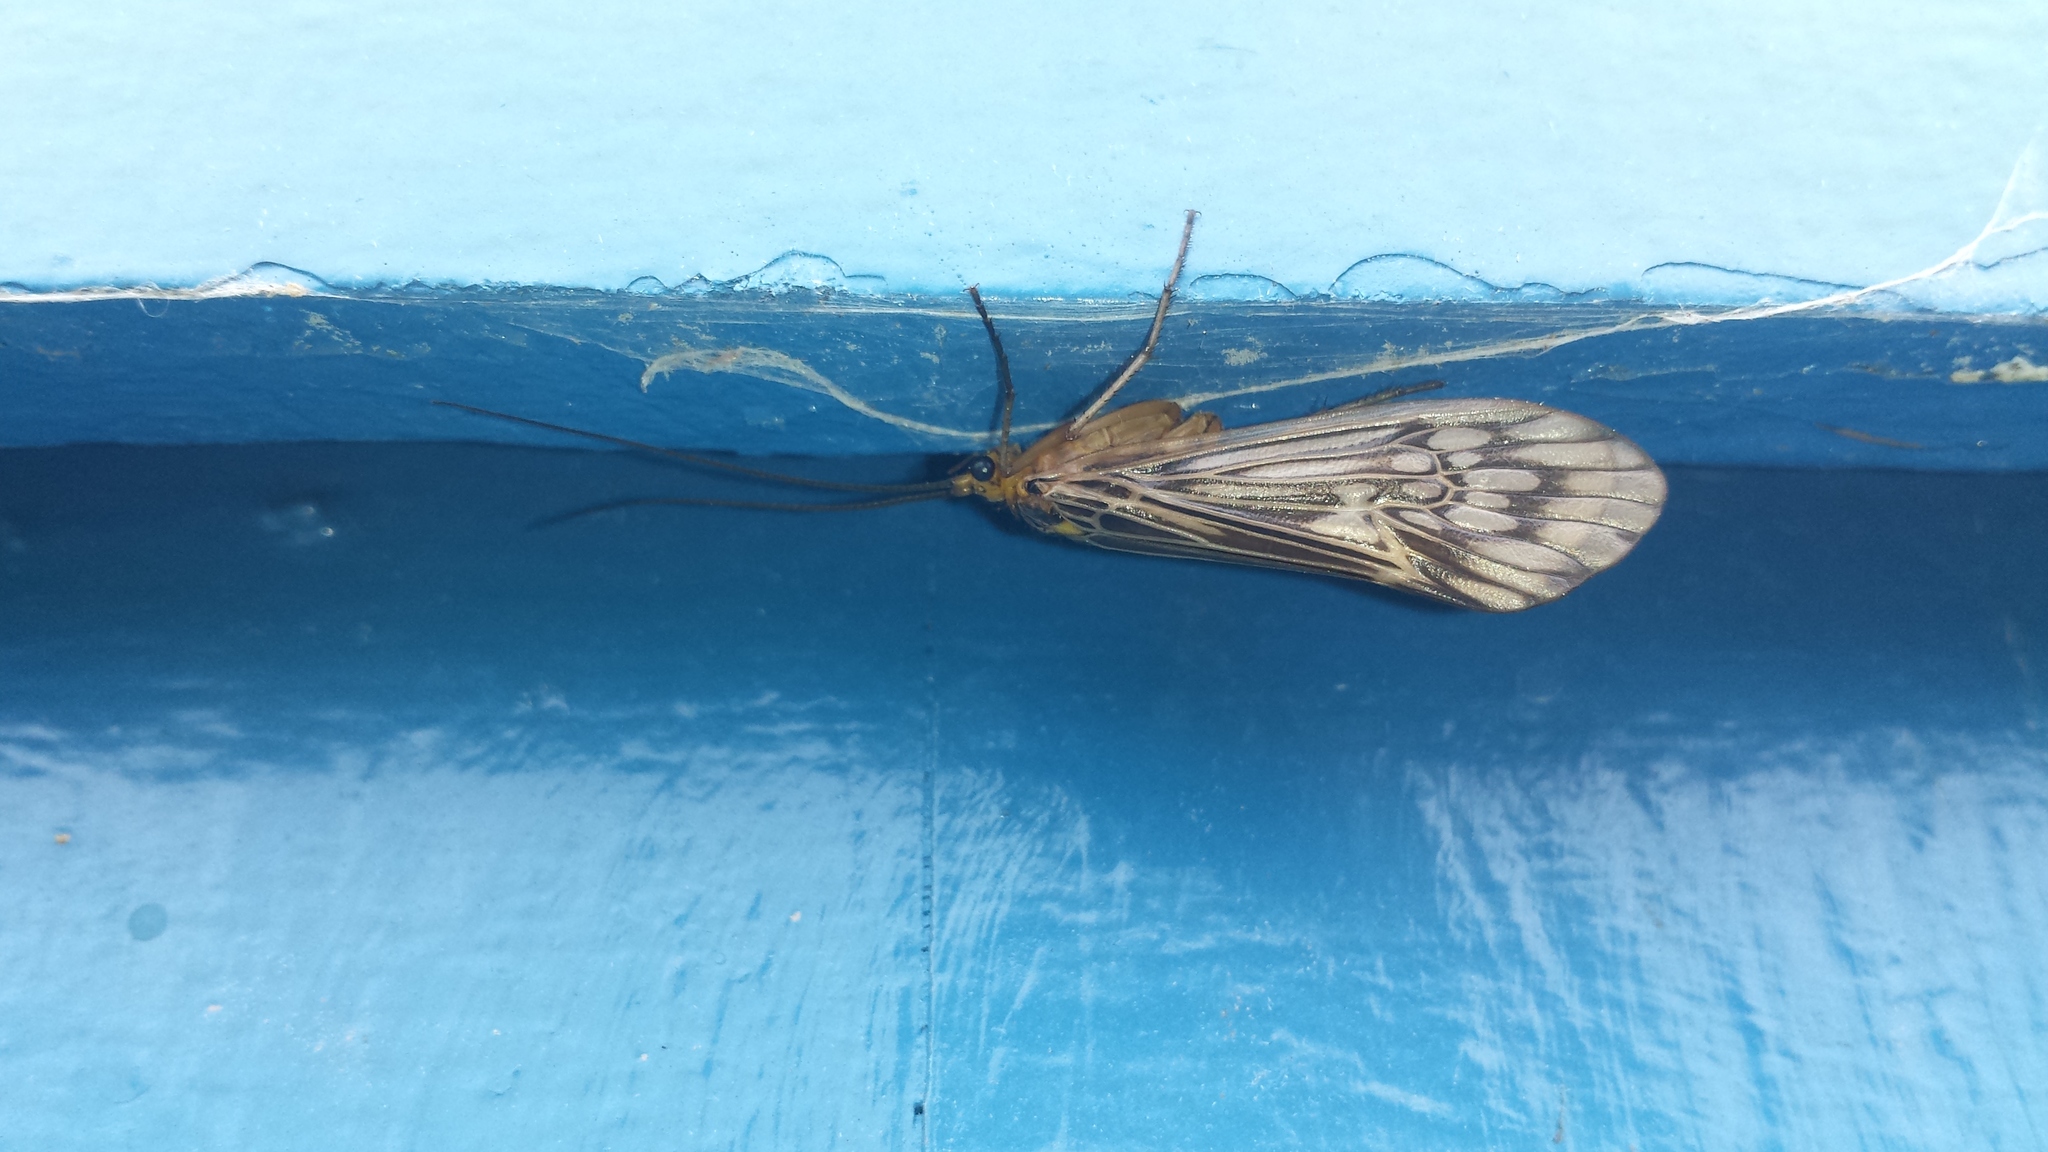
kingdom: Animalia
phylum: Arthropoda
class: Insecta
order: Trichoptera
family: Limnephilidae
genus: Hydatophylax
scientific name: Hydatophylax argus
